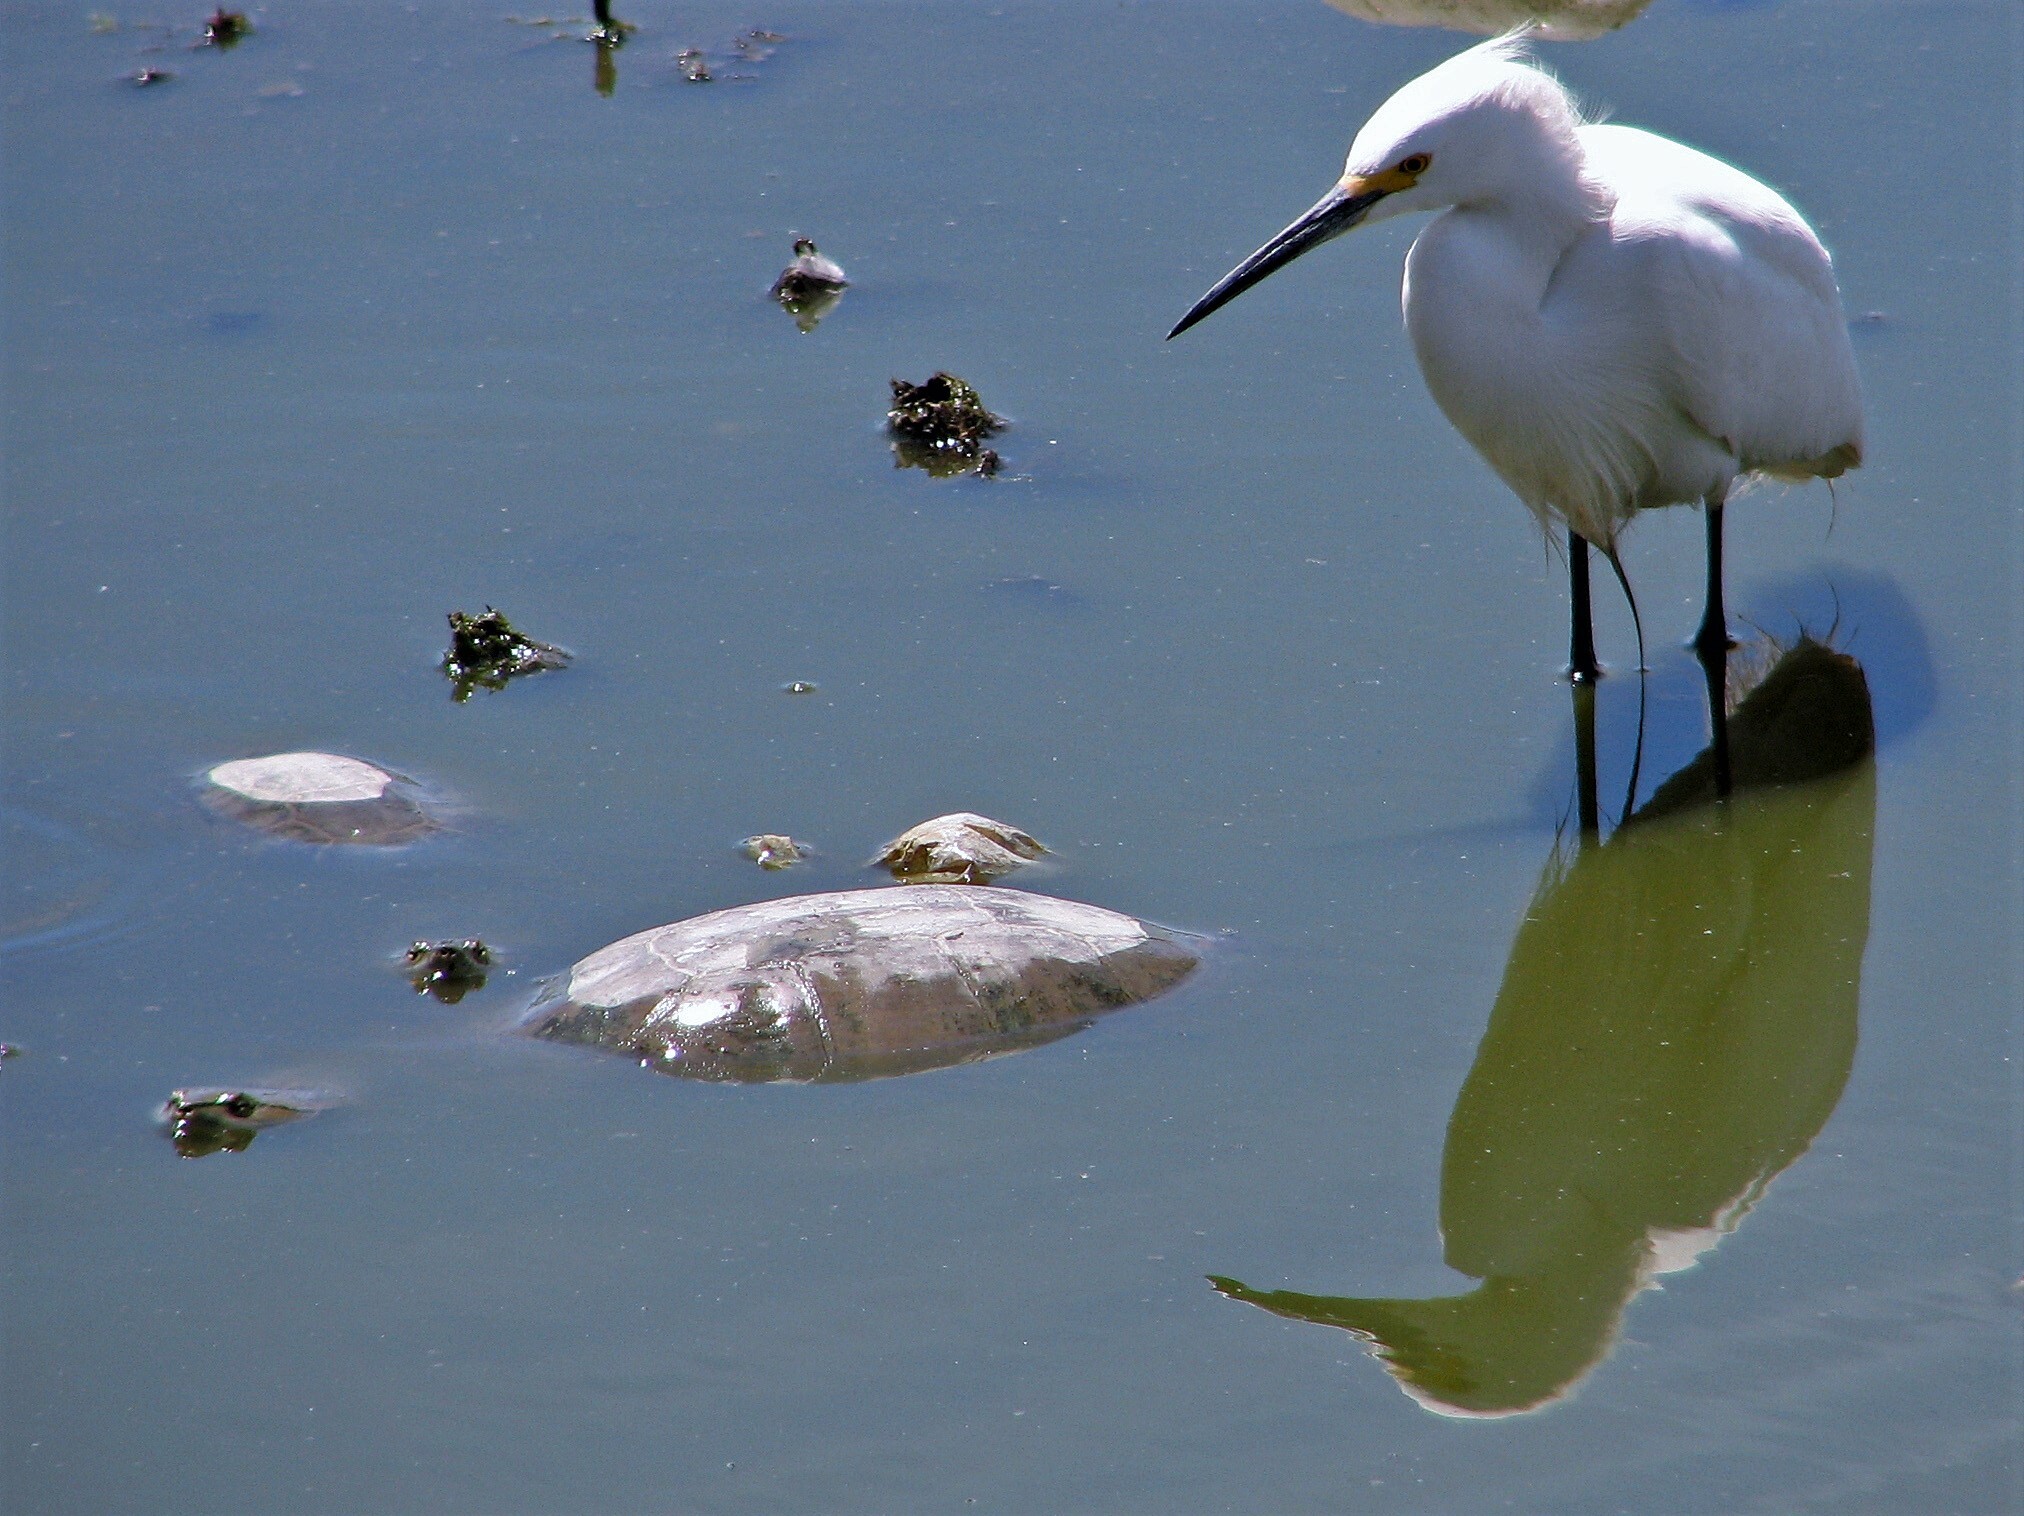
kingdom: Animalia
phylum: Chordata
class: Aves
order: Pelecaniformes
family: Ardeidae
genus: Egretta
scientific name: Egretta thula
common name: Snowy egret
